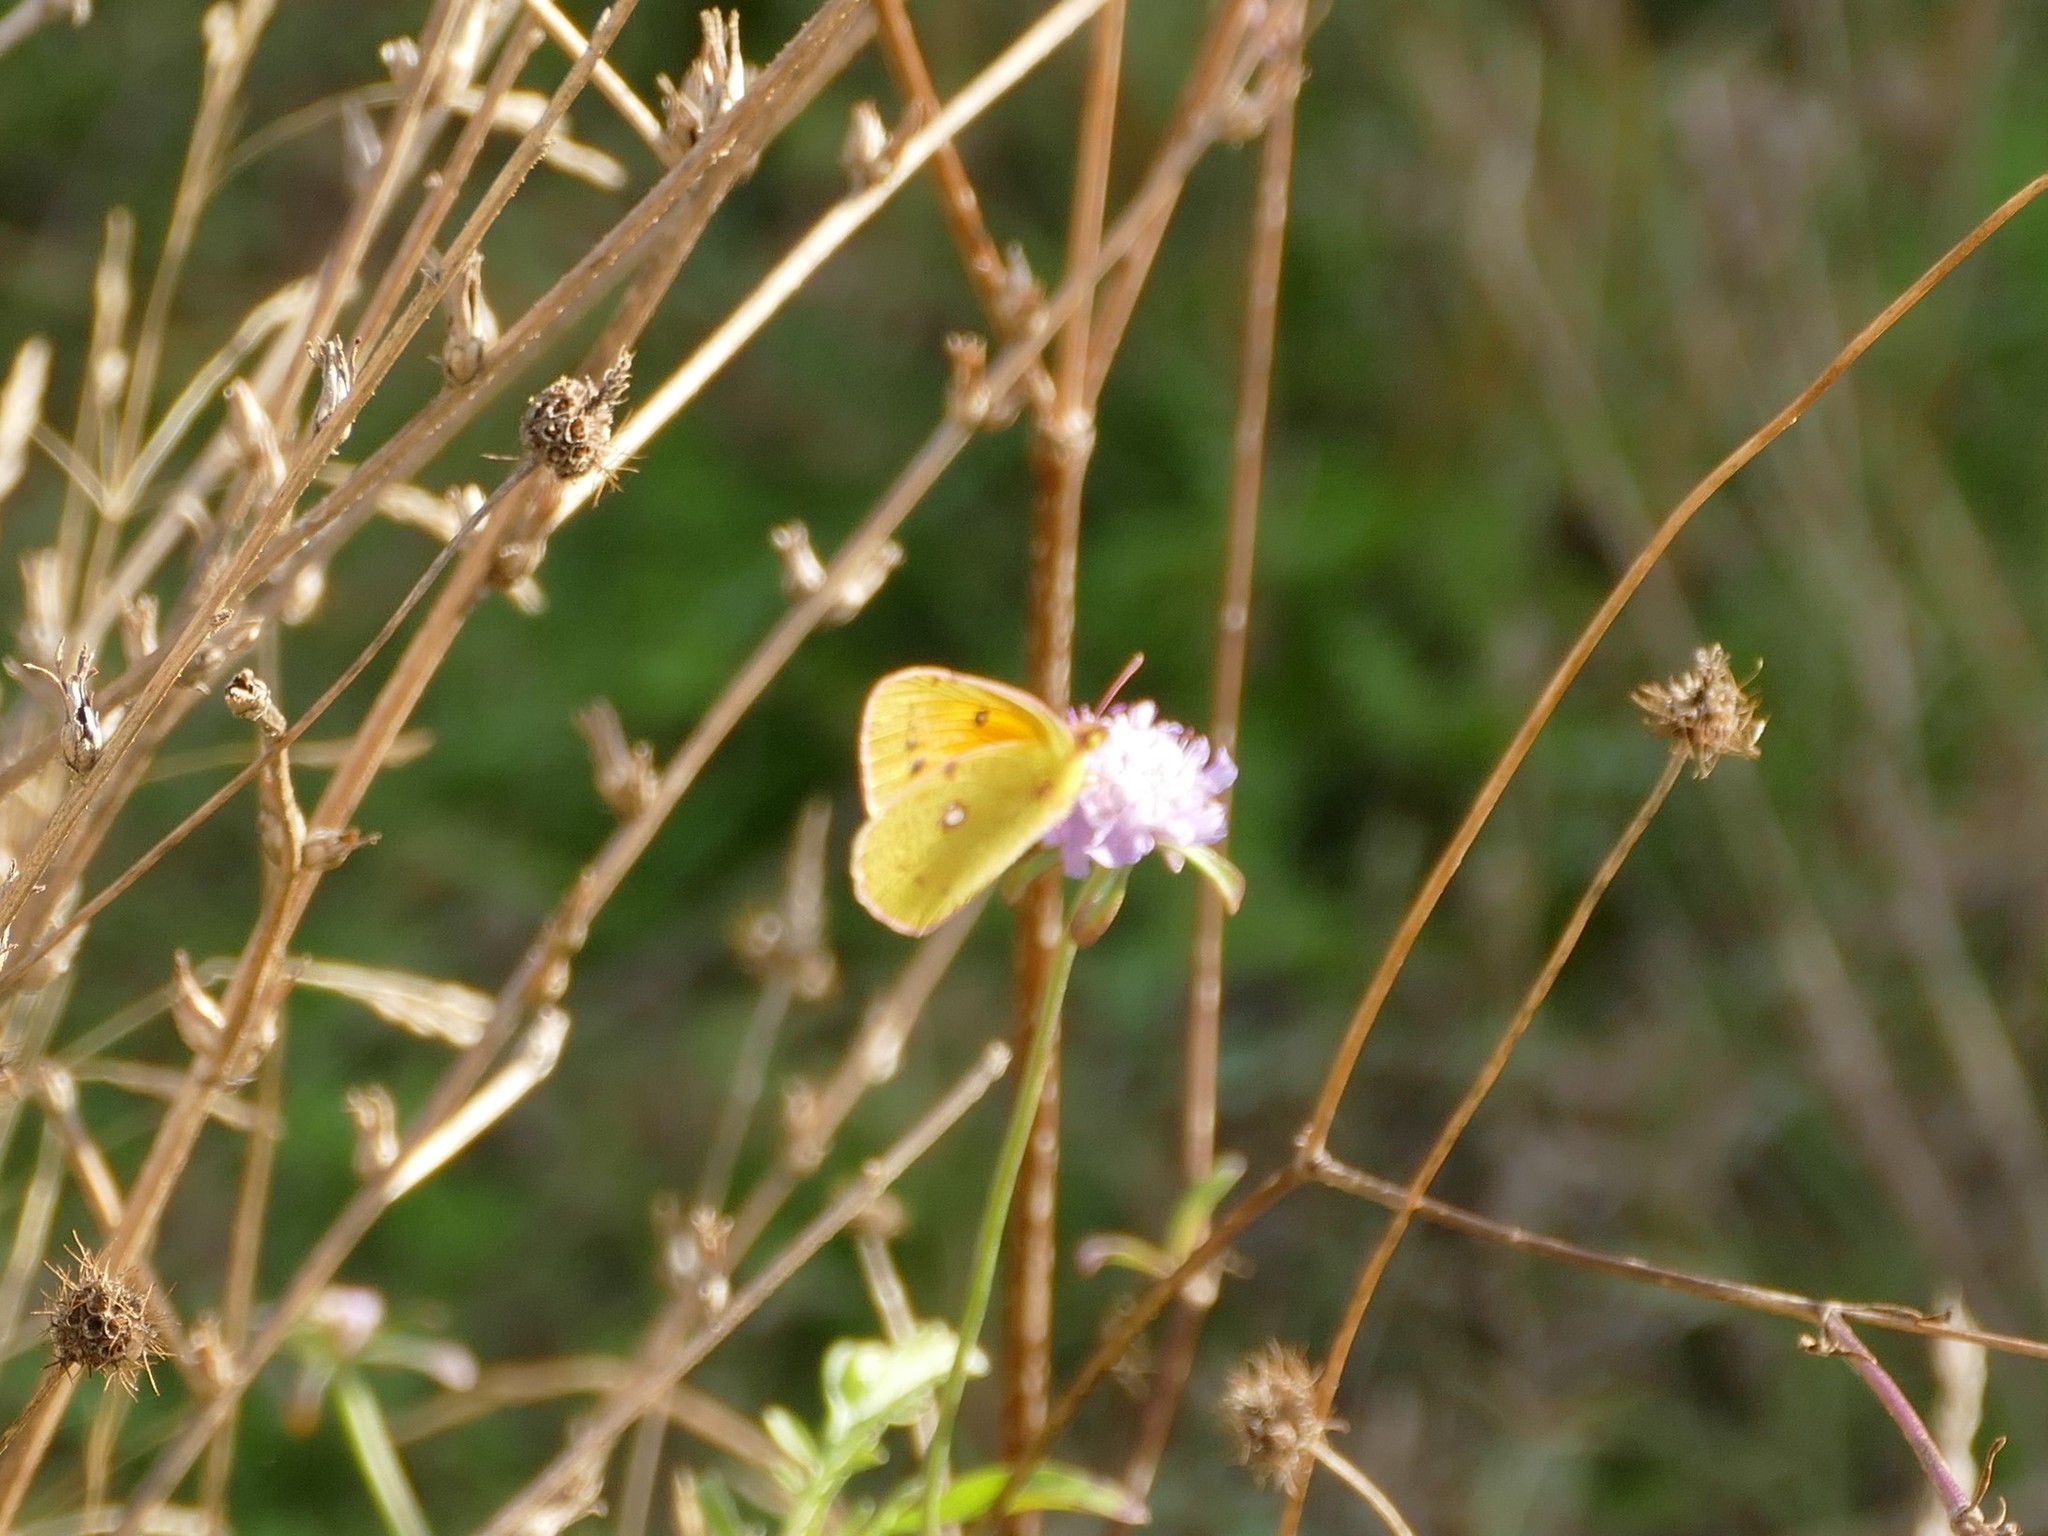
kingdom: Animalia
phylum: Arthropoda
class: Insecta
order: Lepidoptera
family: Pieridae
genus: Colias
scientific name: Colias croceus
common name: Clouded yellow
